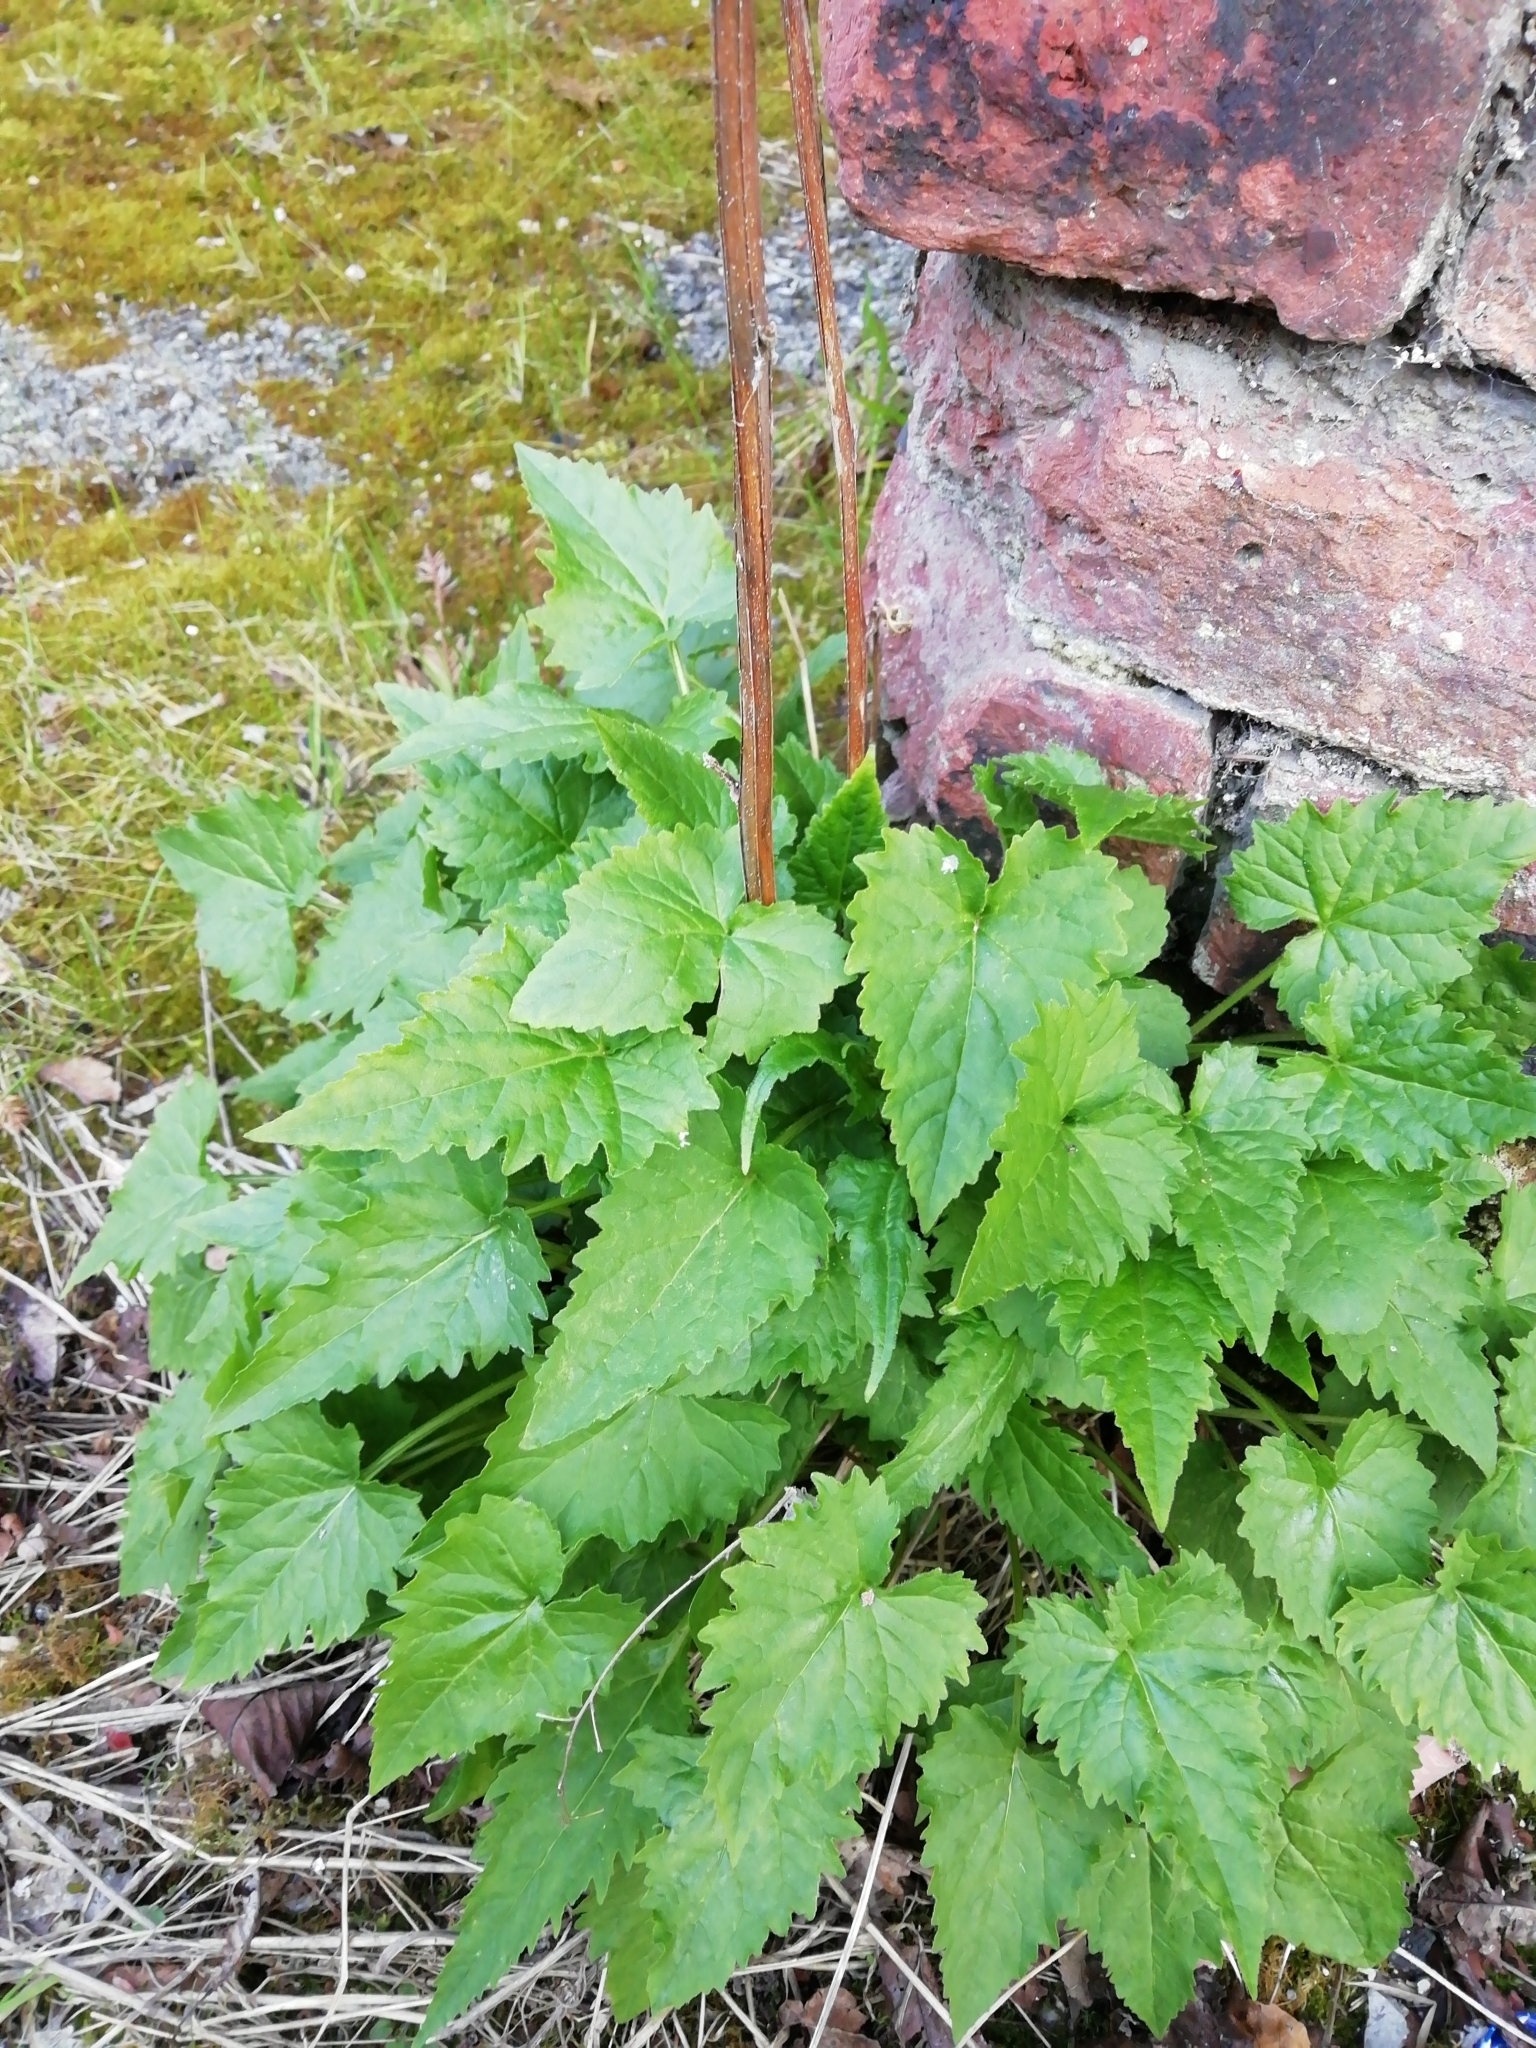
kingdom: Plantae
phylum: Tracheophyta
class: Magnoliopsida
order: Asterales
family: Campanulaceae
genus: Campanula
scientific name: Campanula trachelium
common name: Nettle-leaved bellflower
